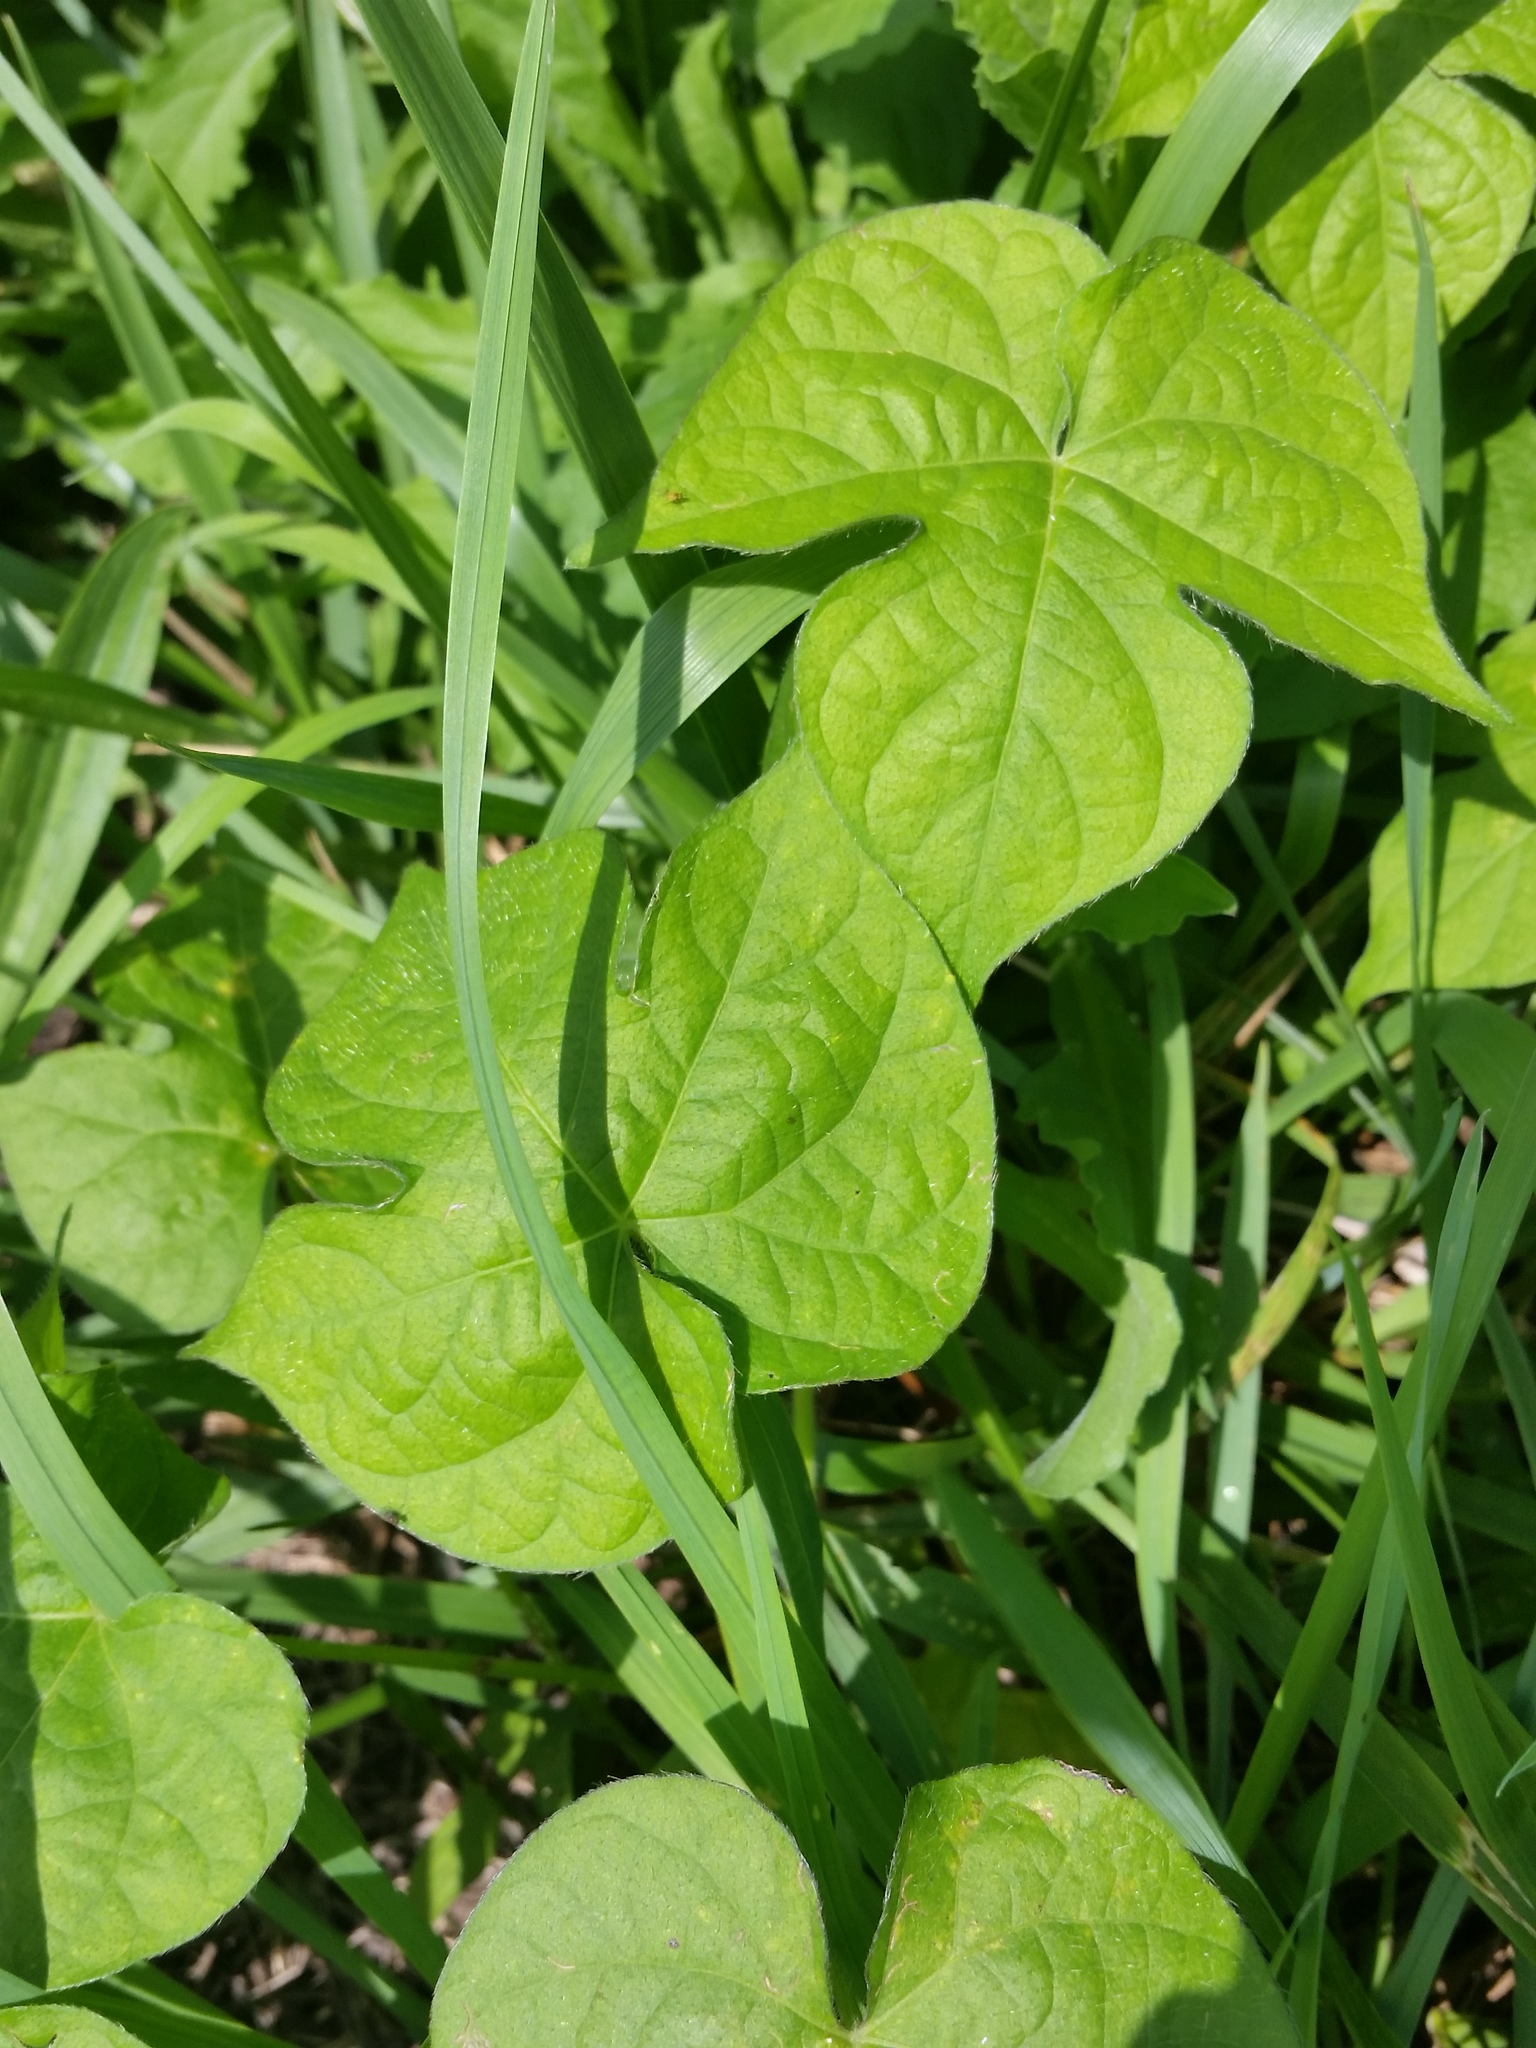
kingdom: Plantae
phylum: Tracheophyta
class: Magnoliopsida
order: Solanales
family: Convolvulaceae
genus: Ipomoea
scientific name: Ipomoea hederacea
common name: Ivy-leaved morning-glory
